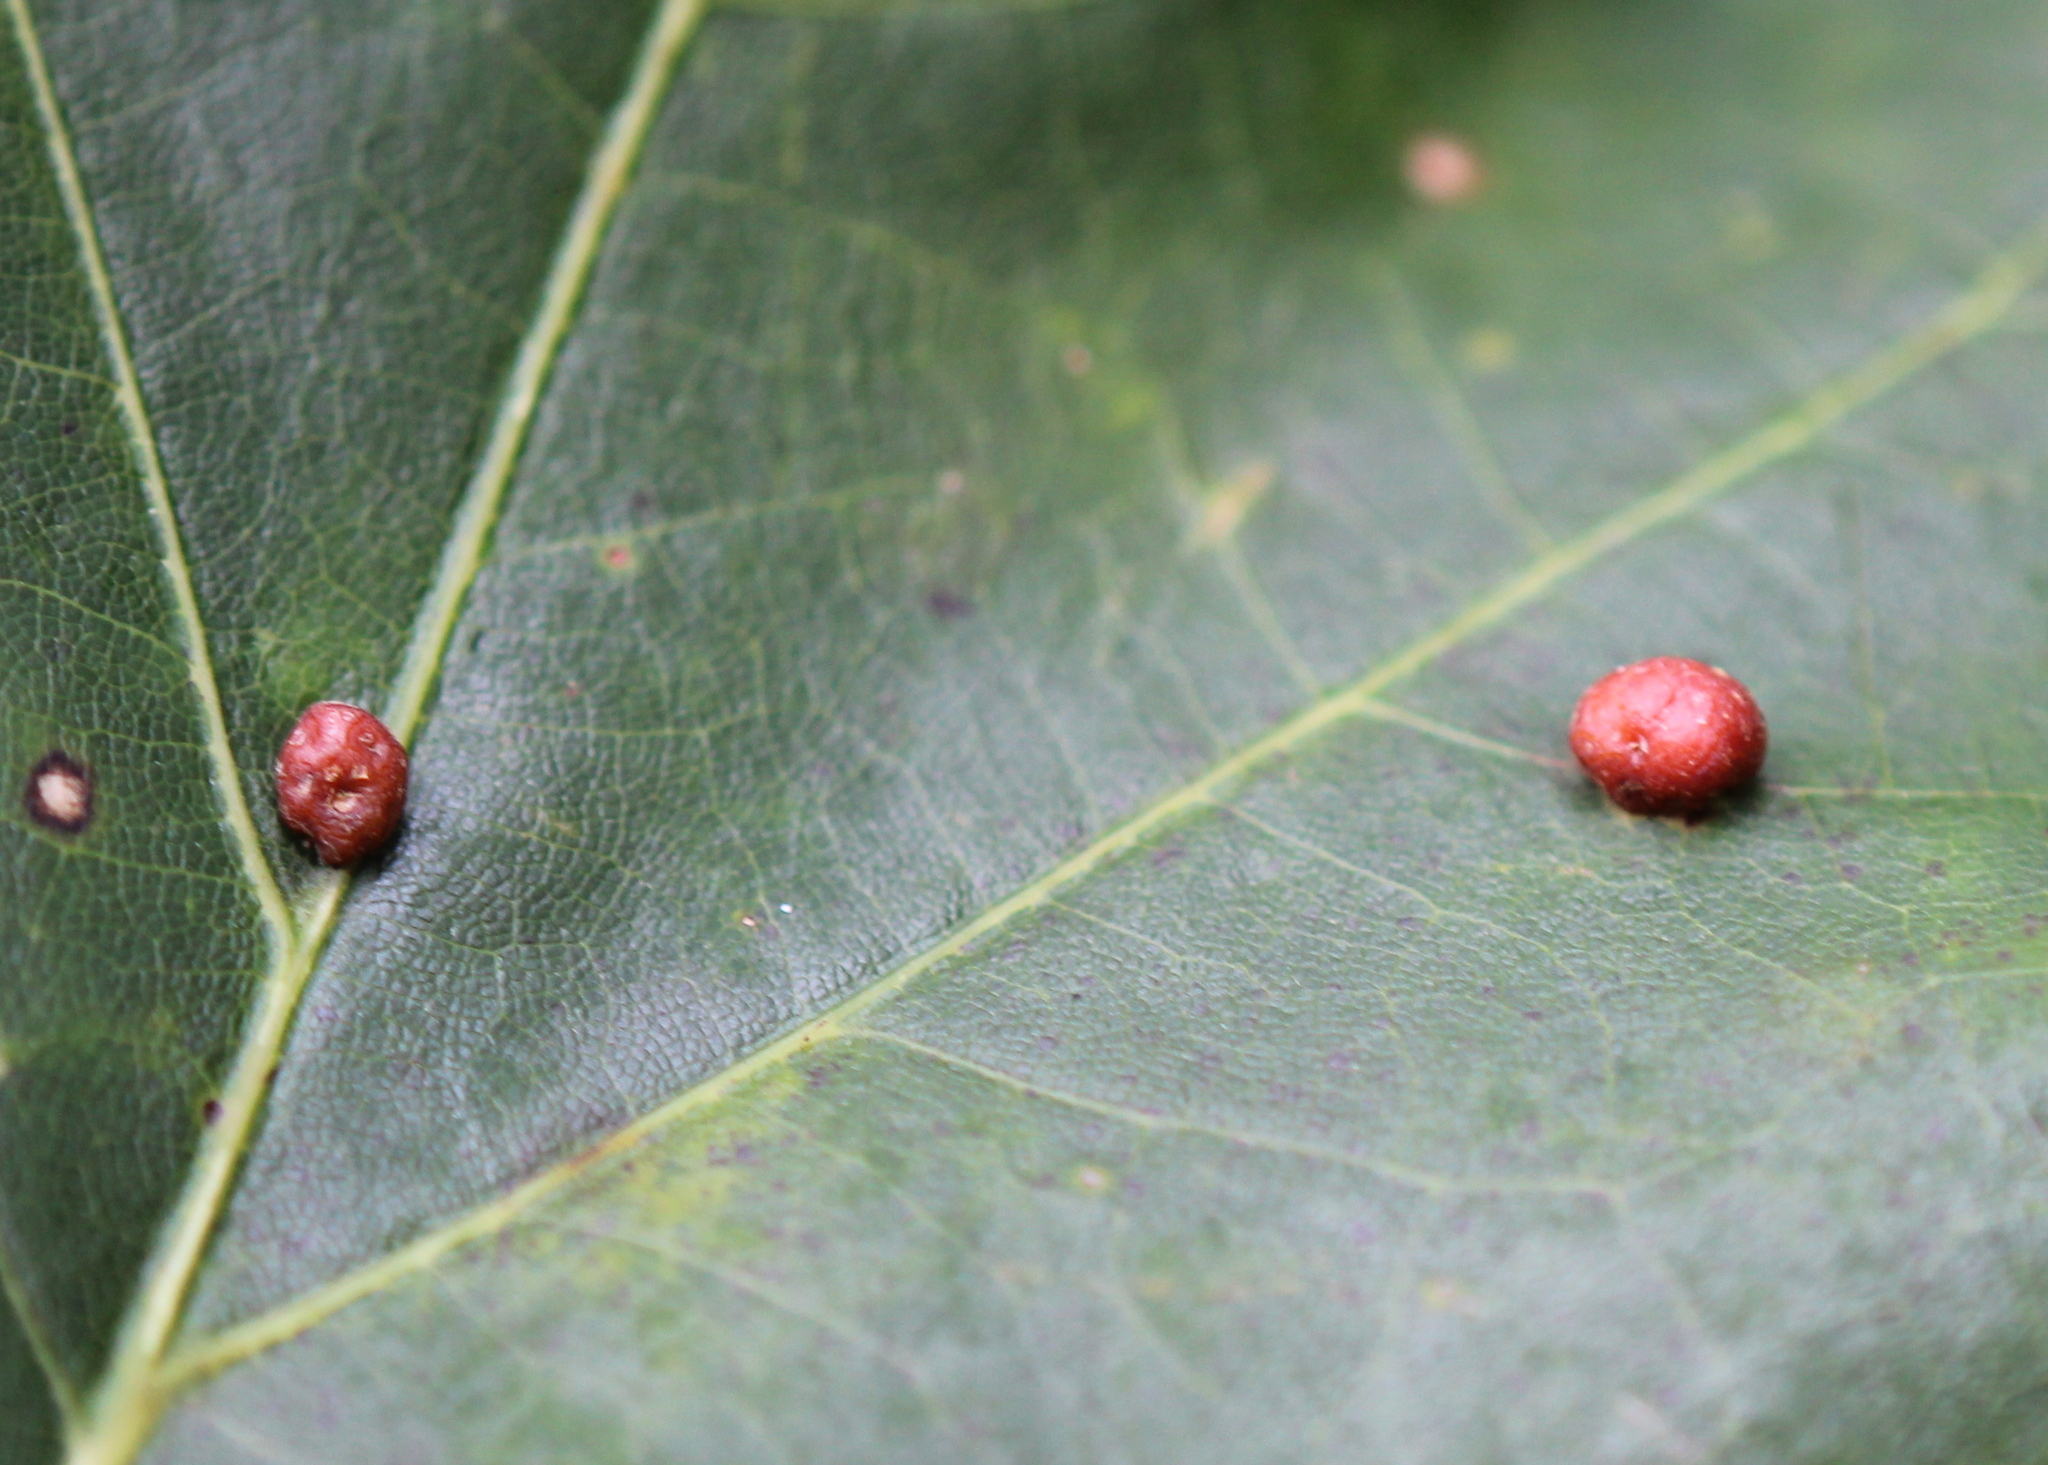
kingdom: Animalia
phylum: Arthropoda
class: Insecta
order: Diptera
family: Cecidomyiidae
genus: Polystepha
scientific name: Polystepha pilulae
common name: Oak leaf gall midge
